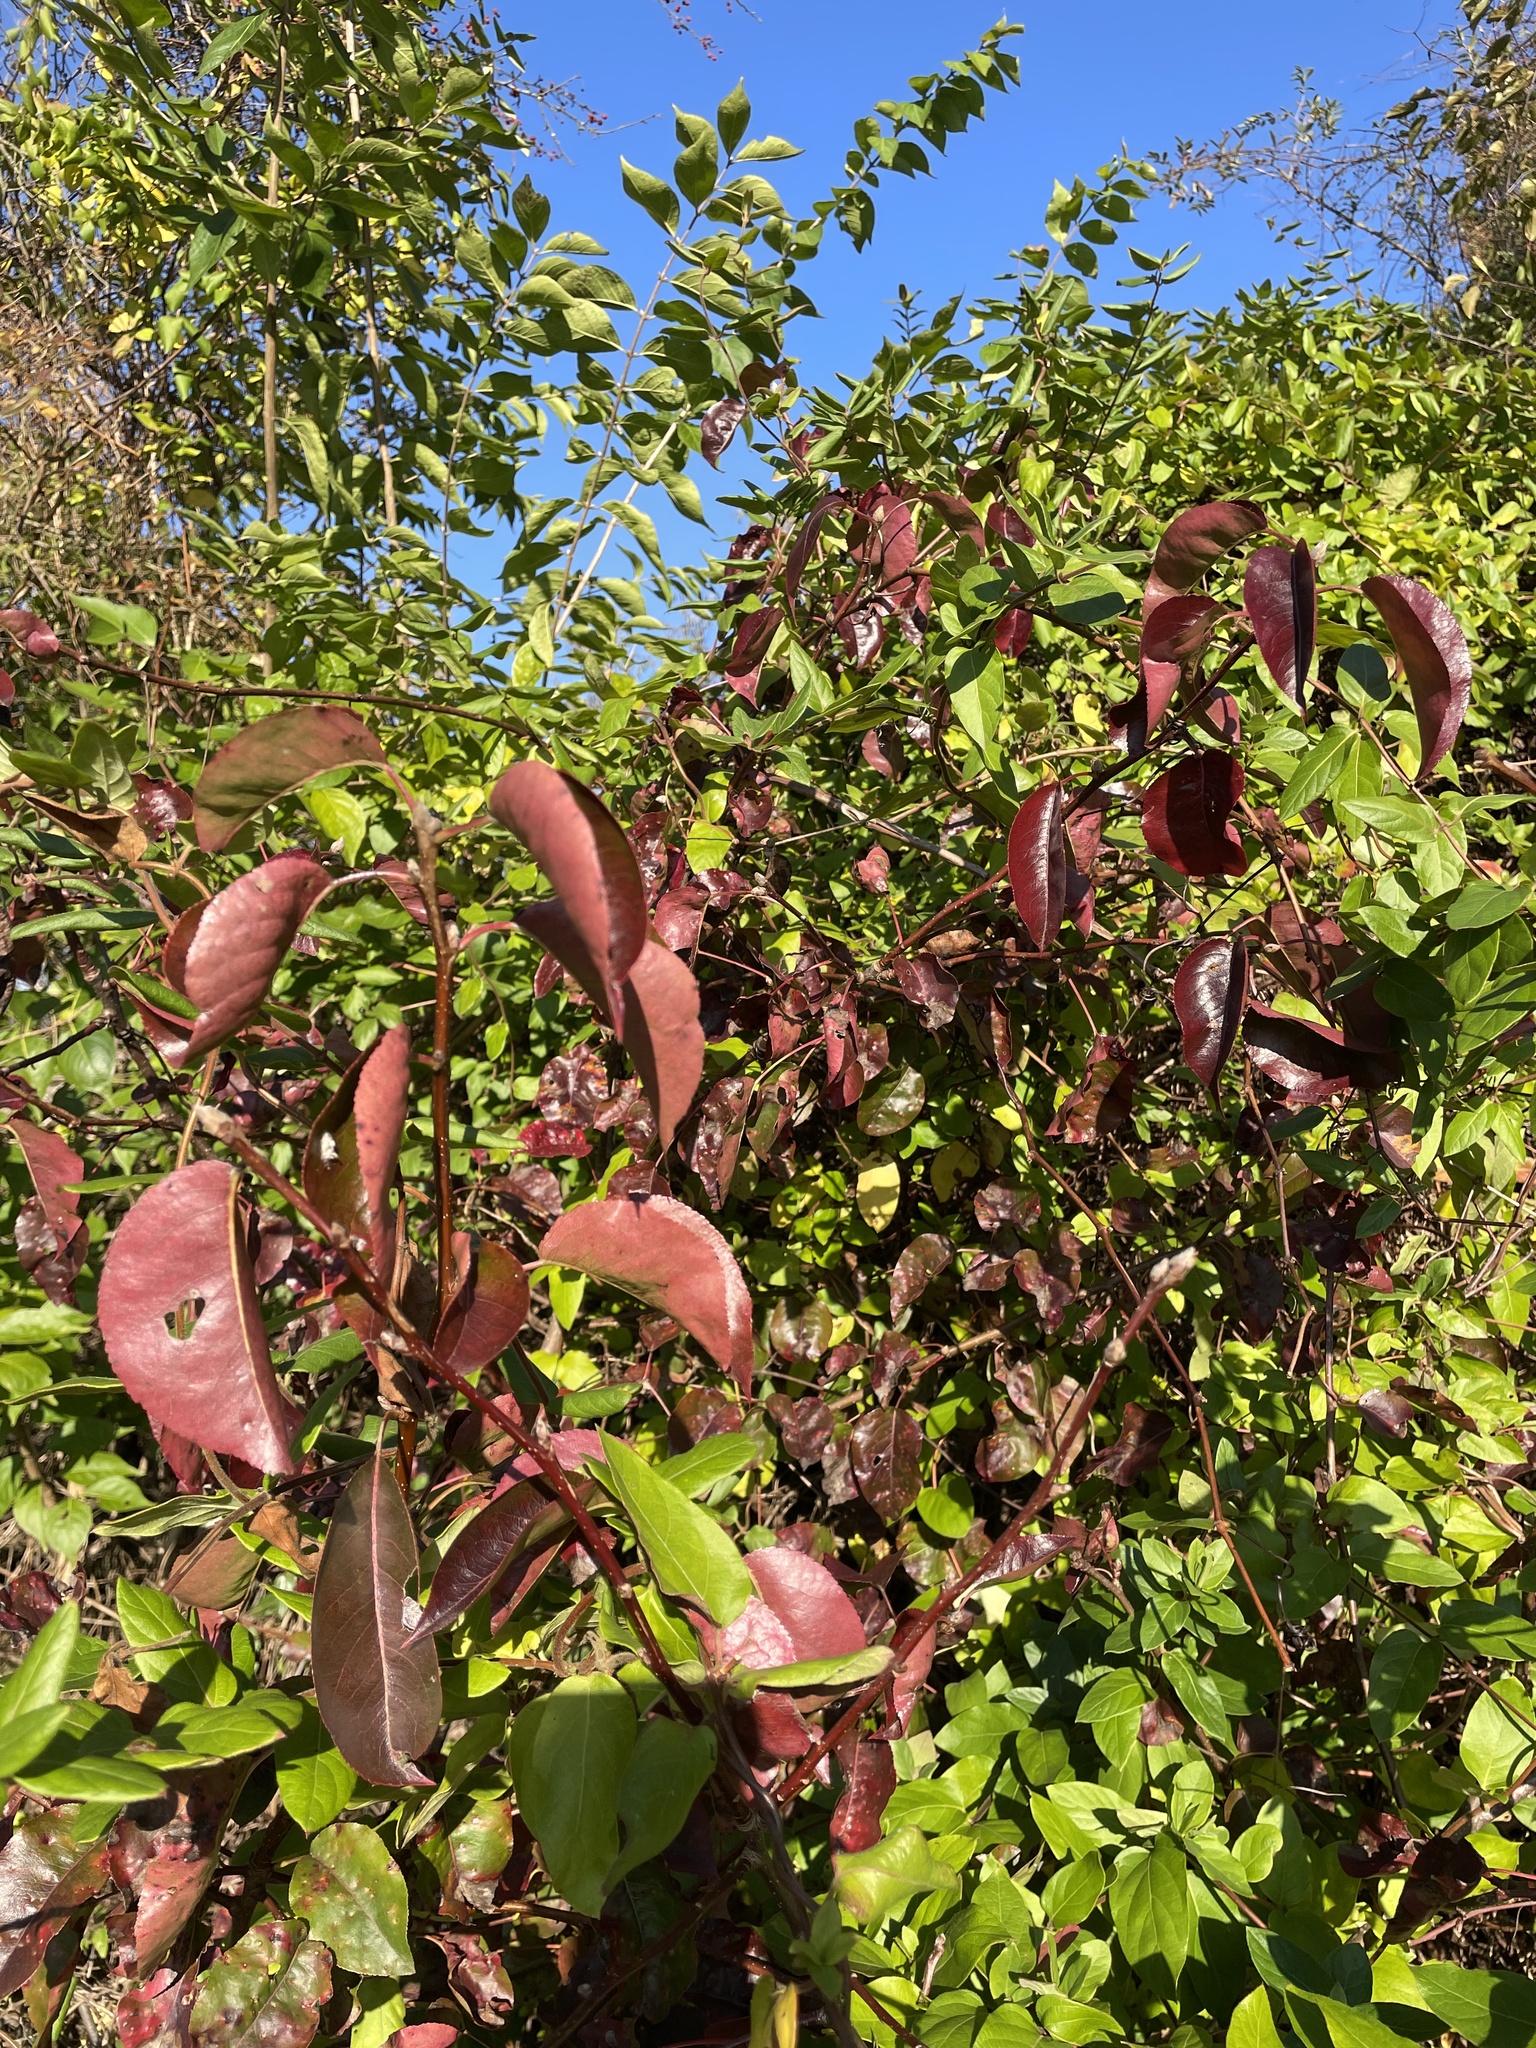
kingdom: Plantae
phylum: Tracheophyta
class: Magnoliopsida
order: Rosales
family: Rosaceae
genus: Pyrus
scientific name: Pyrus calleryana
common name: Callery pear
